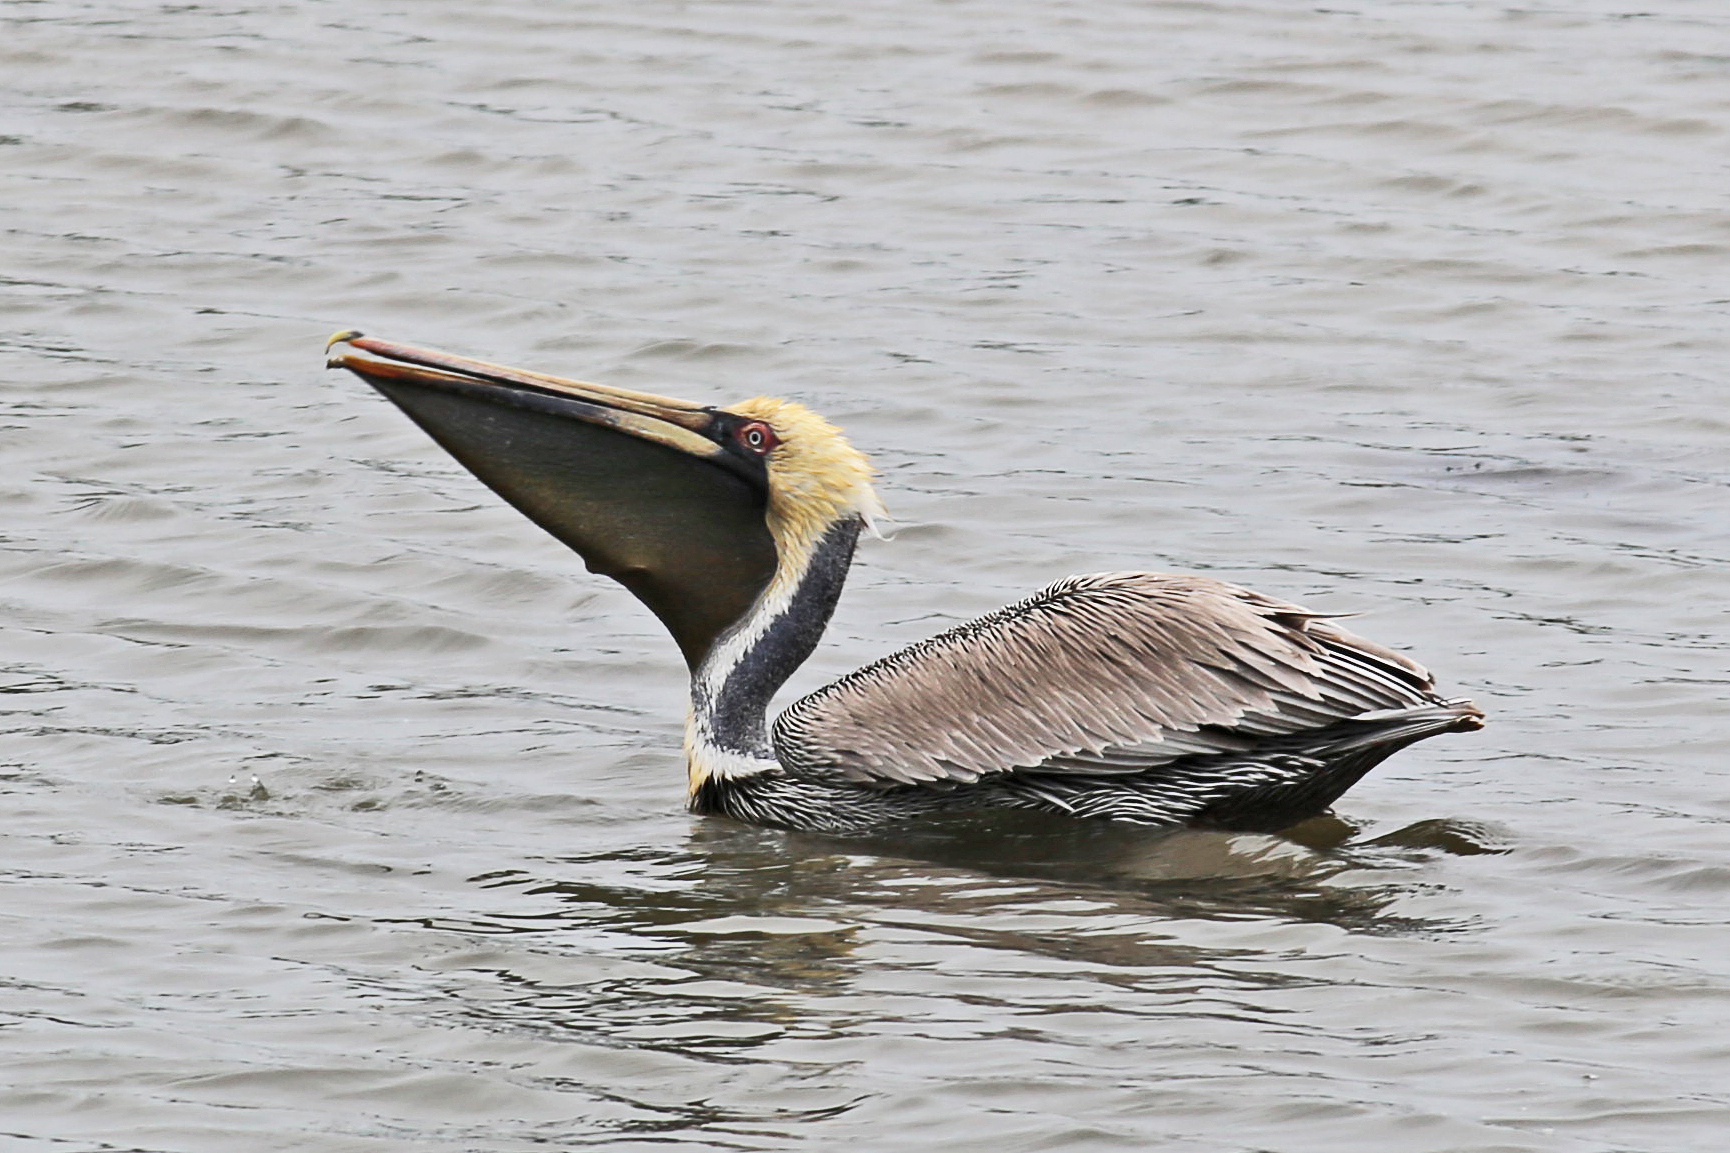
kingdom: Animalia
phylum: Chordata
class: Aves
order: Pelecaniformes
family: Pelecanidae
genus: Pelecanus
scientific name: Pelecanus occidentalis
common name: Brown pelican
